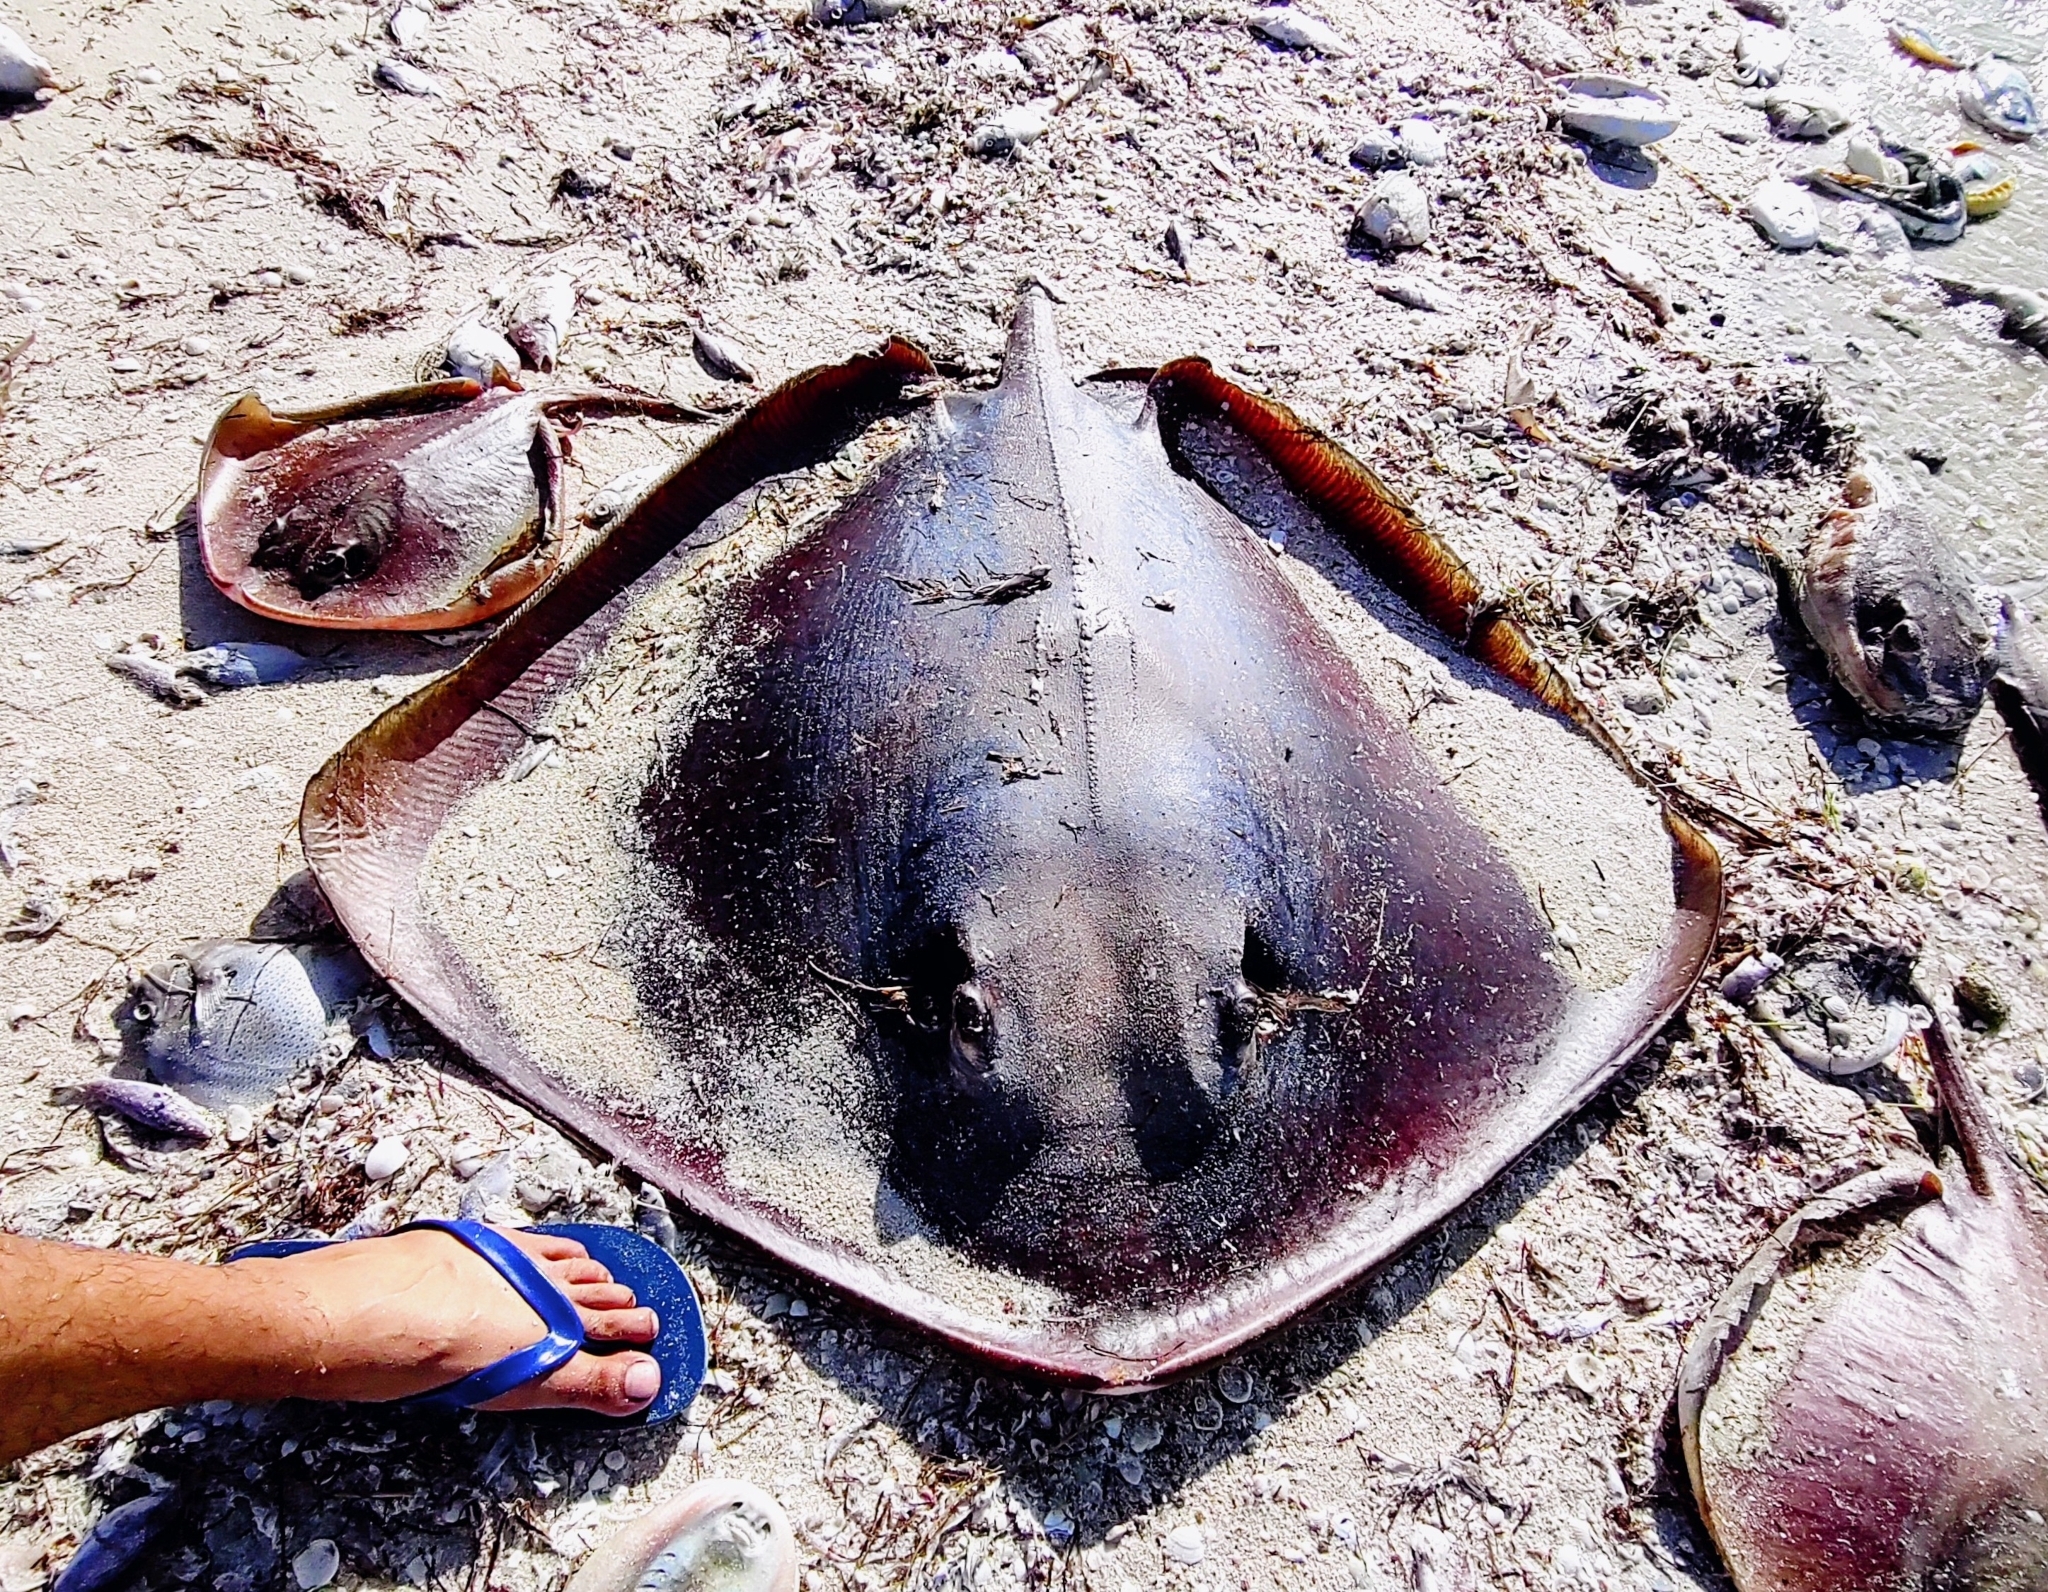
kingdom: Animalia
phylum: Chordata
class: Elasmobranchii
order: Myliobatiformes
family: Dasyatidae
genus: Hypanus
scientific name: Hypanus americanus
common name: Southern stingray
